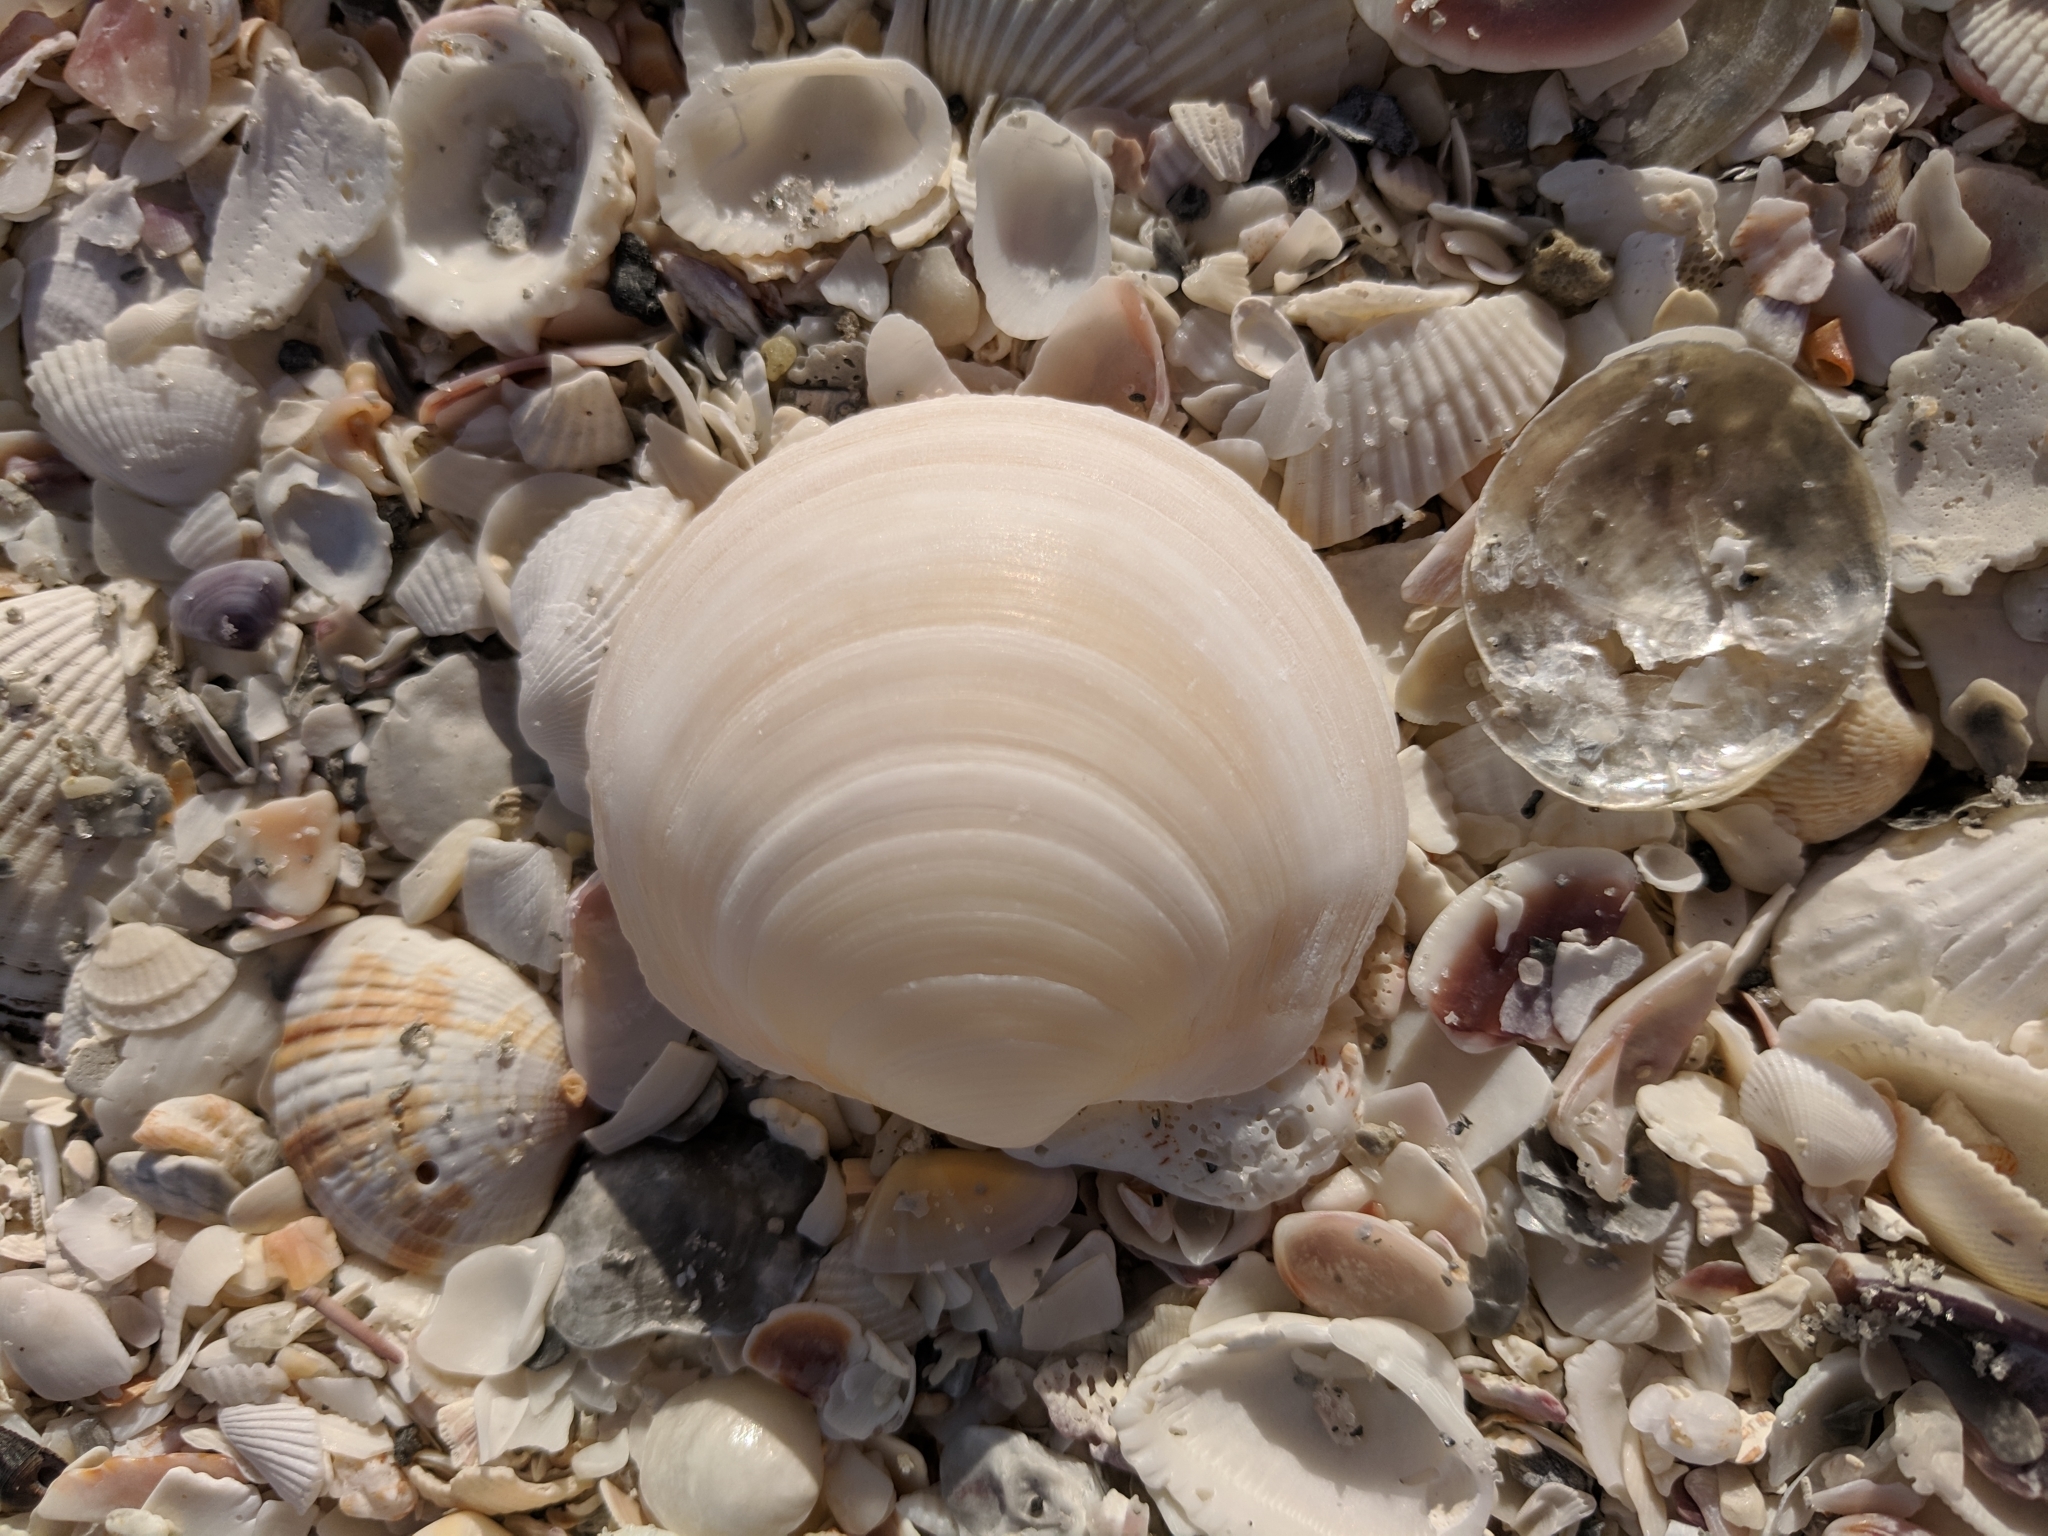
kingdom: Animalia
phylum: Mollusca
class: Bivalvia
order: Lucinida
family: Lucinidae
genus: Anodontia
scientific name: Anodontia alba
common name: Buttercup lucine
